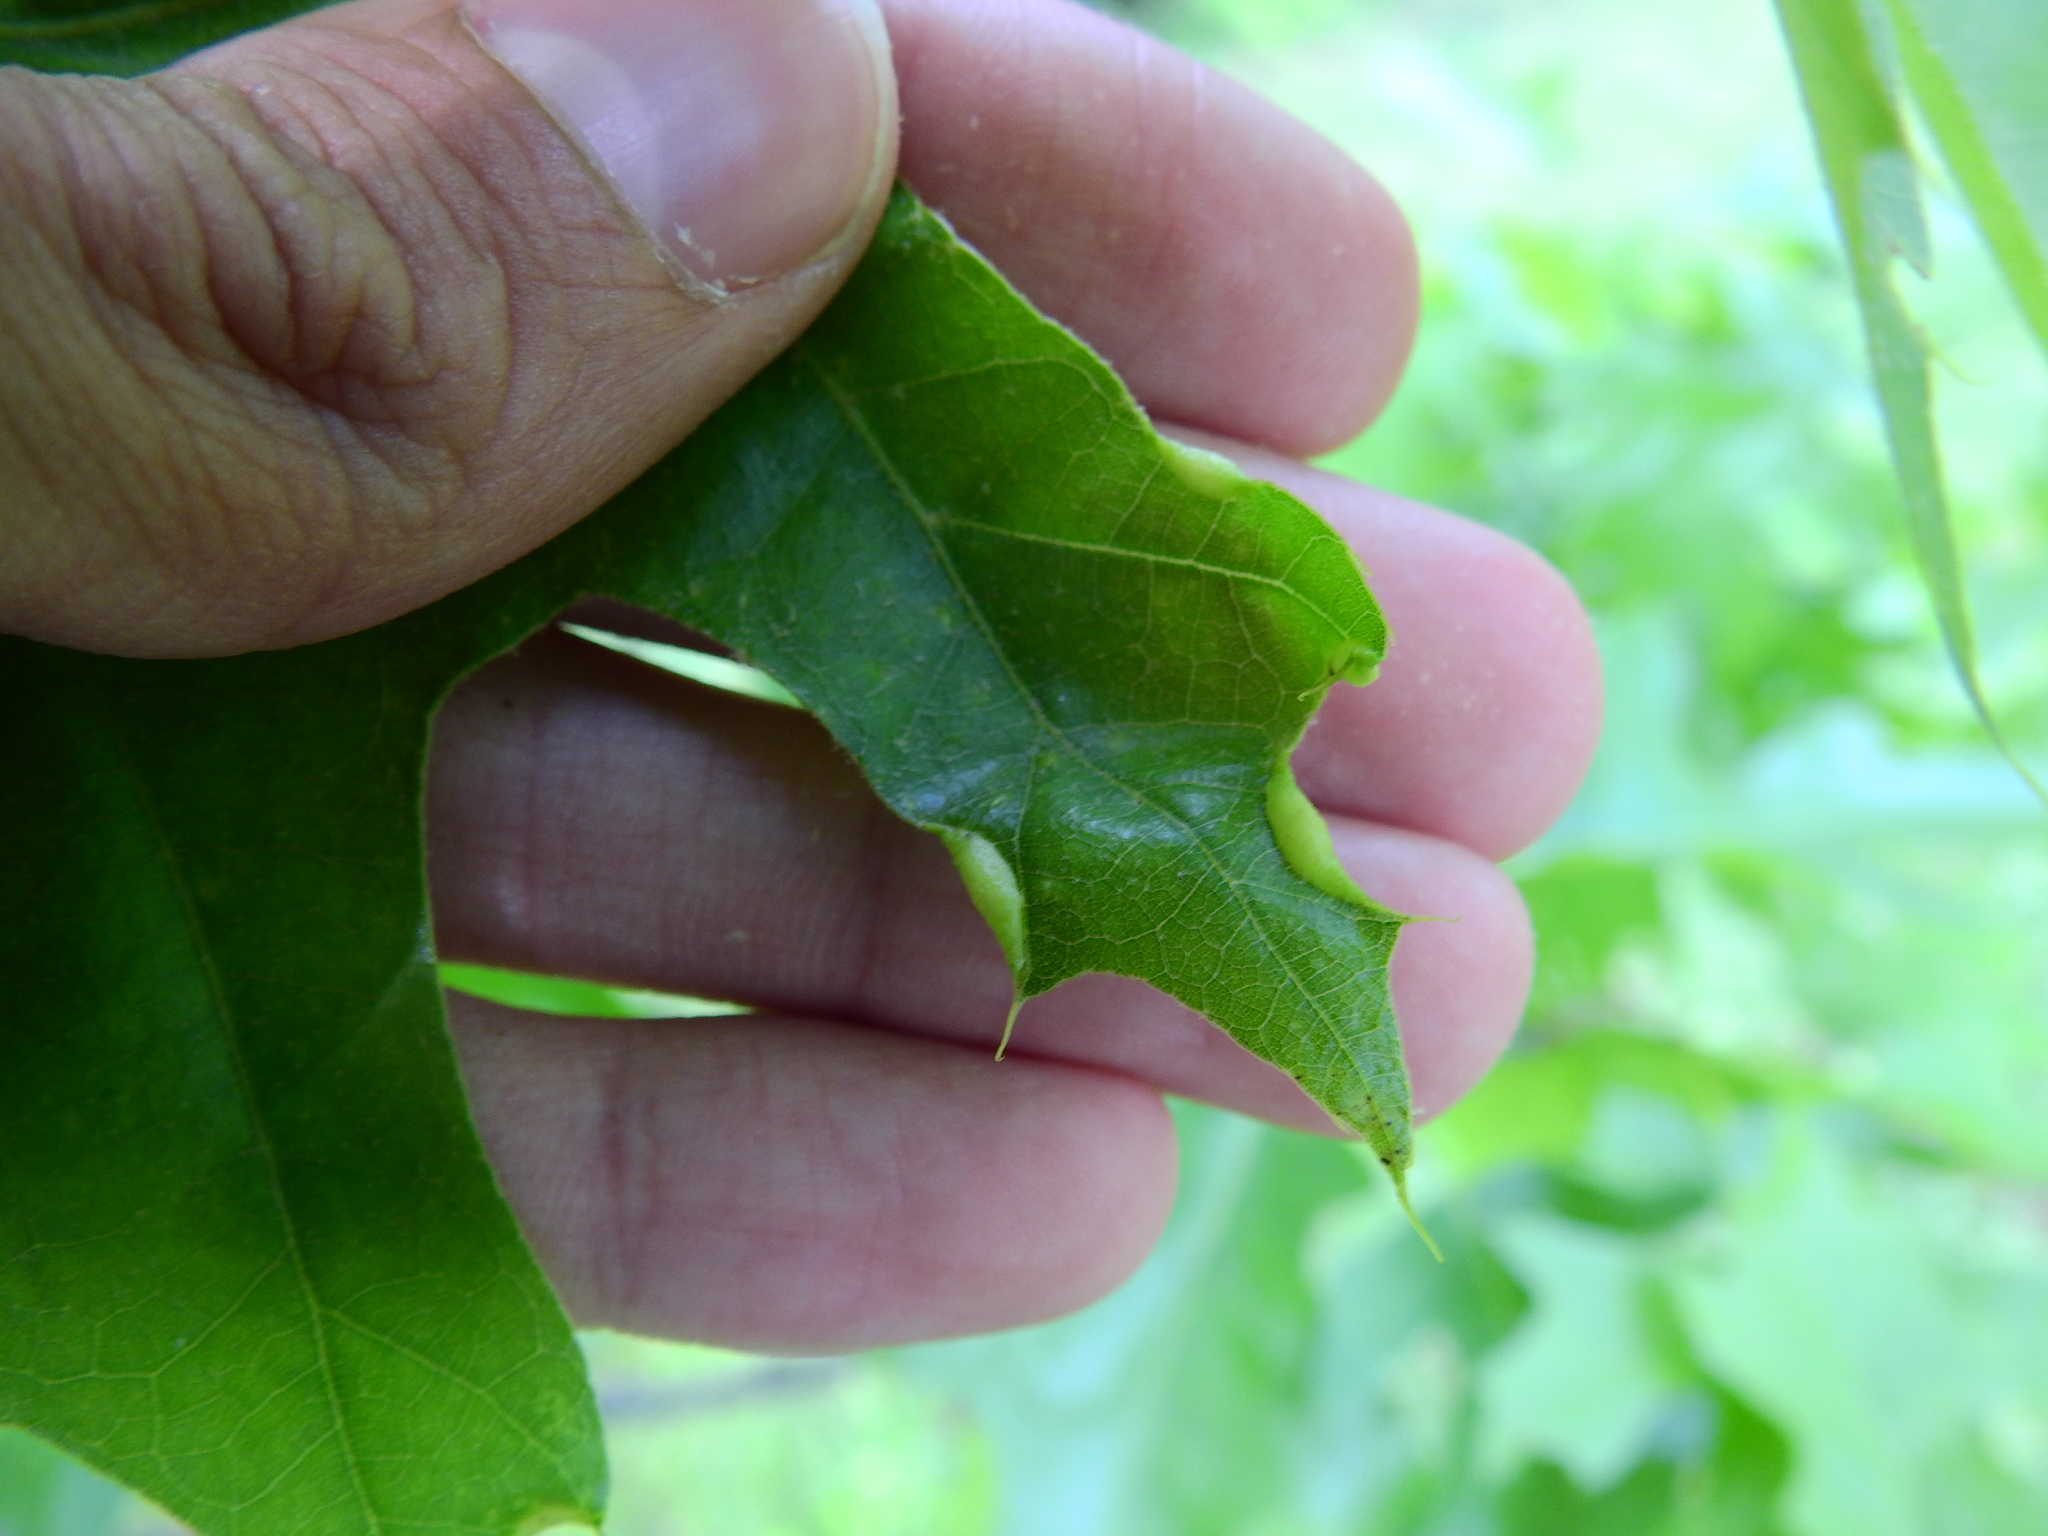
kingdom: Animalia
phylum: Arthropoda
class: Insecta
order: Diptera
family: Cecidomyiidae
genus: Macrodiplosis
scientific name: Macrodiplosis erubescens
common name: Marginal leaf fold gall midge
